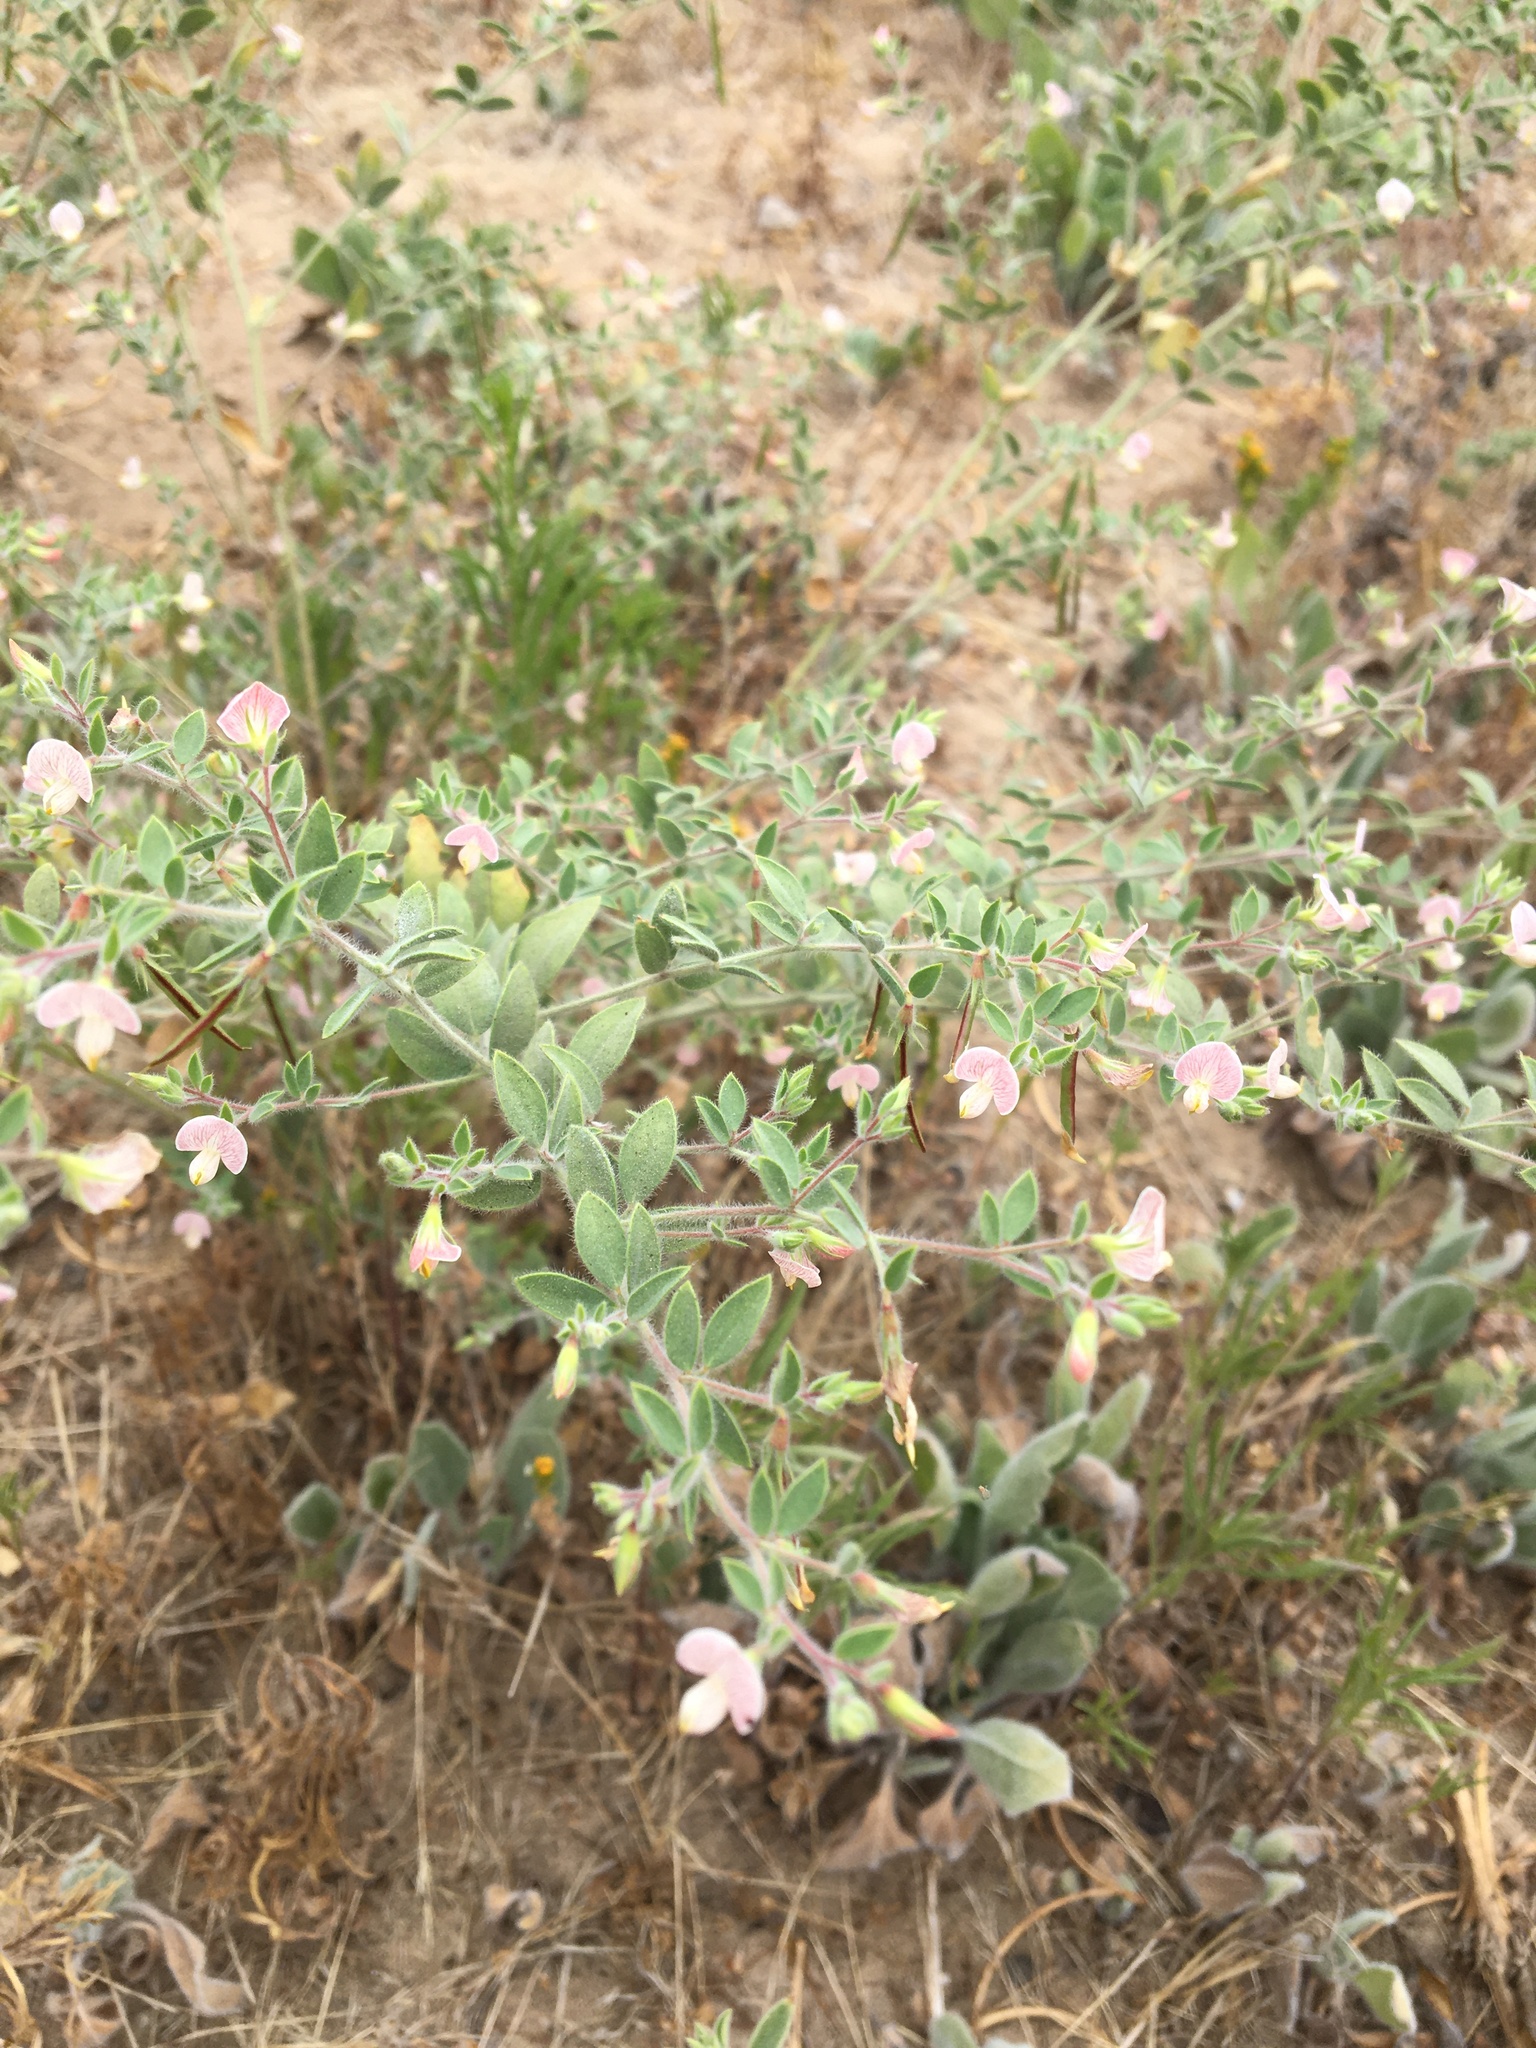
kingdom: Plantae
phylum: Tracheophyta
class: Magnoliopsida
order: Fabales
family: Fabaceae
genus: Acmispon
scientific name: Acmispon americanus
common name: American bird's-foot trefoil
